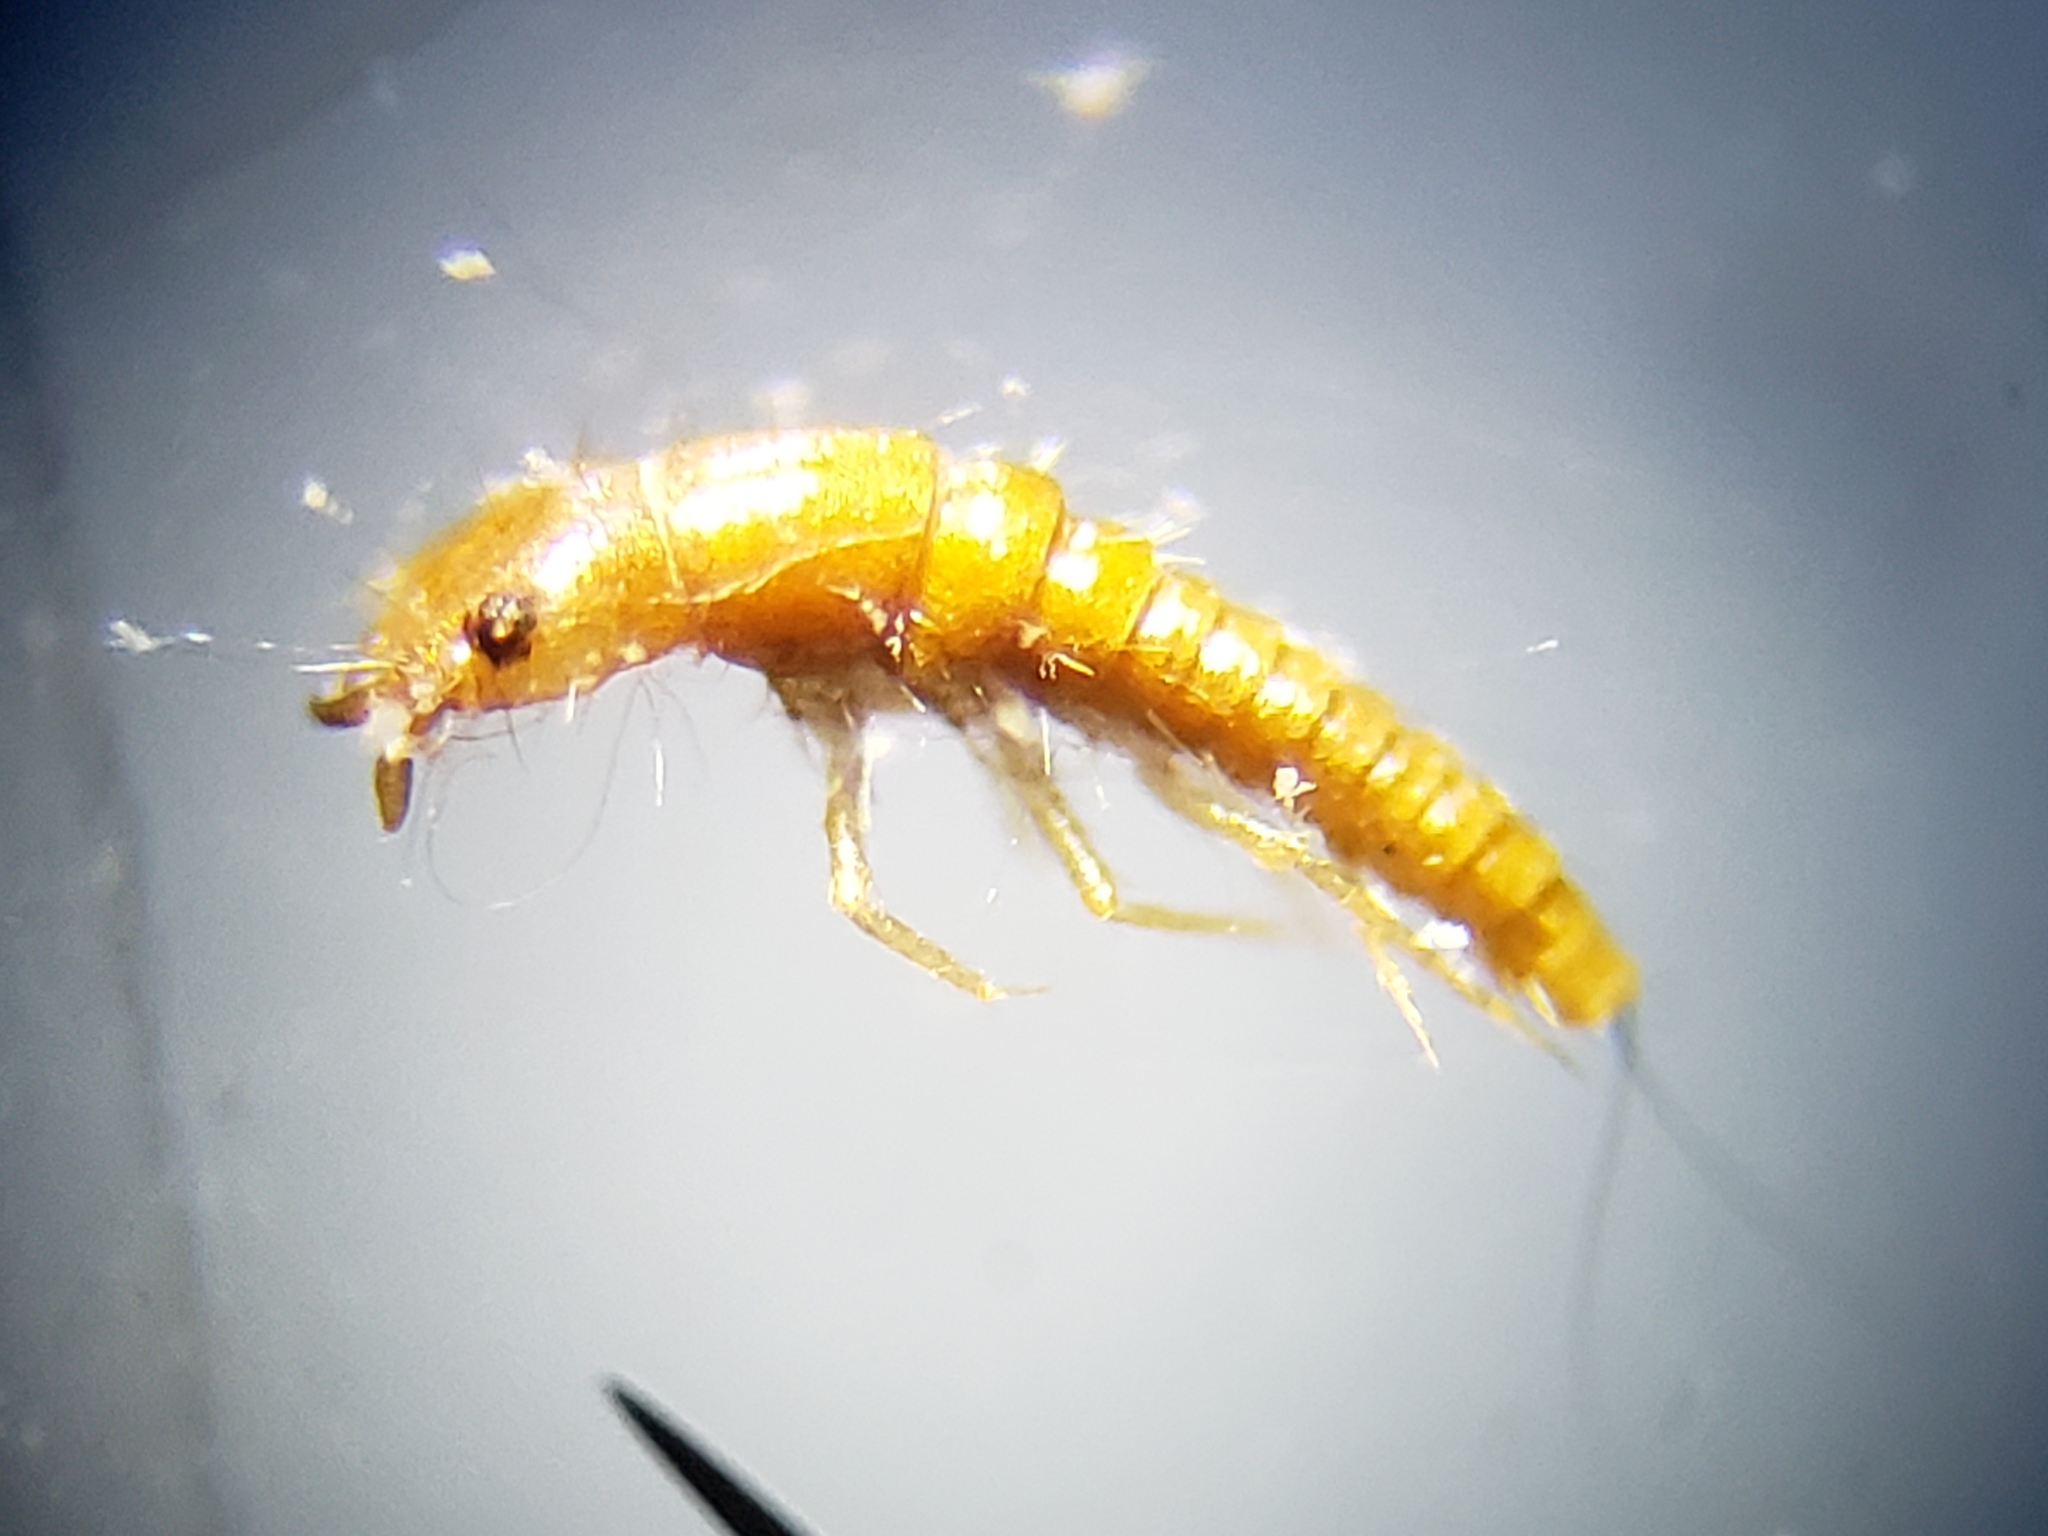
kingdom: Animalia
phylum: Arthropoda
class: Insecta
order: Coleoptera
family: Meloidae
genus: Epicauta
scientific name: Epicauta floridensis
